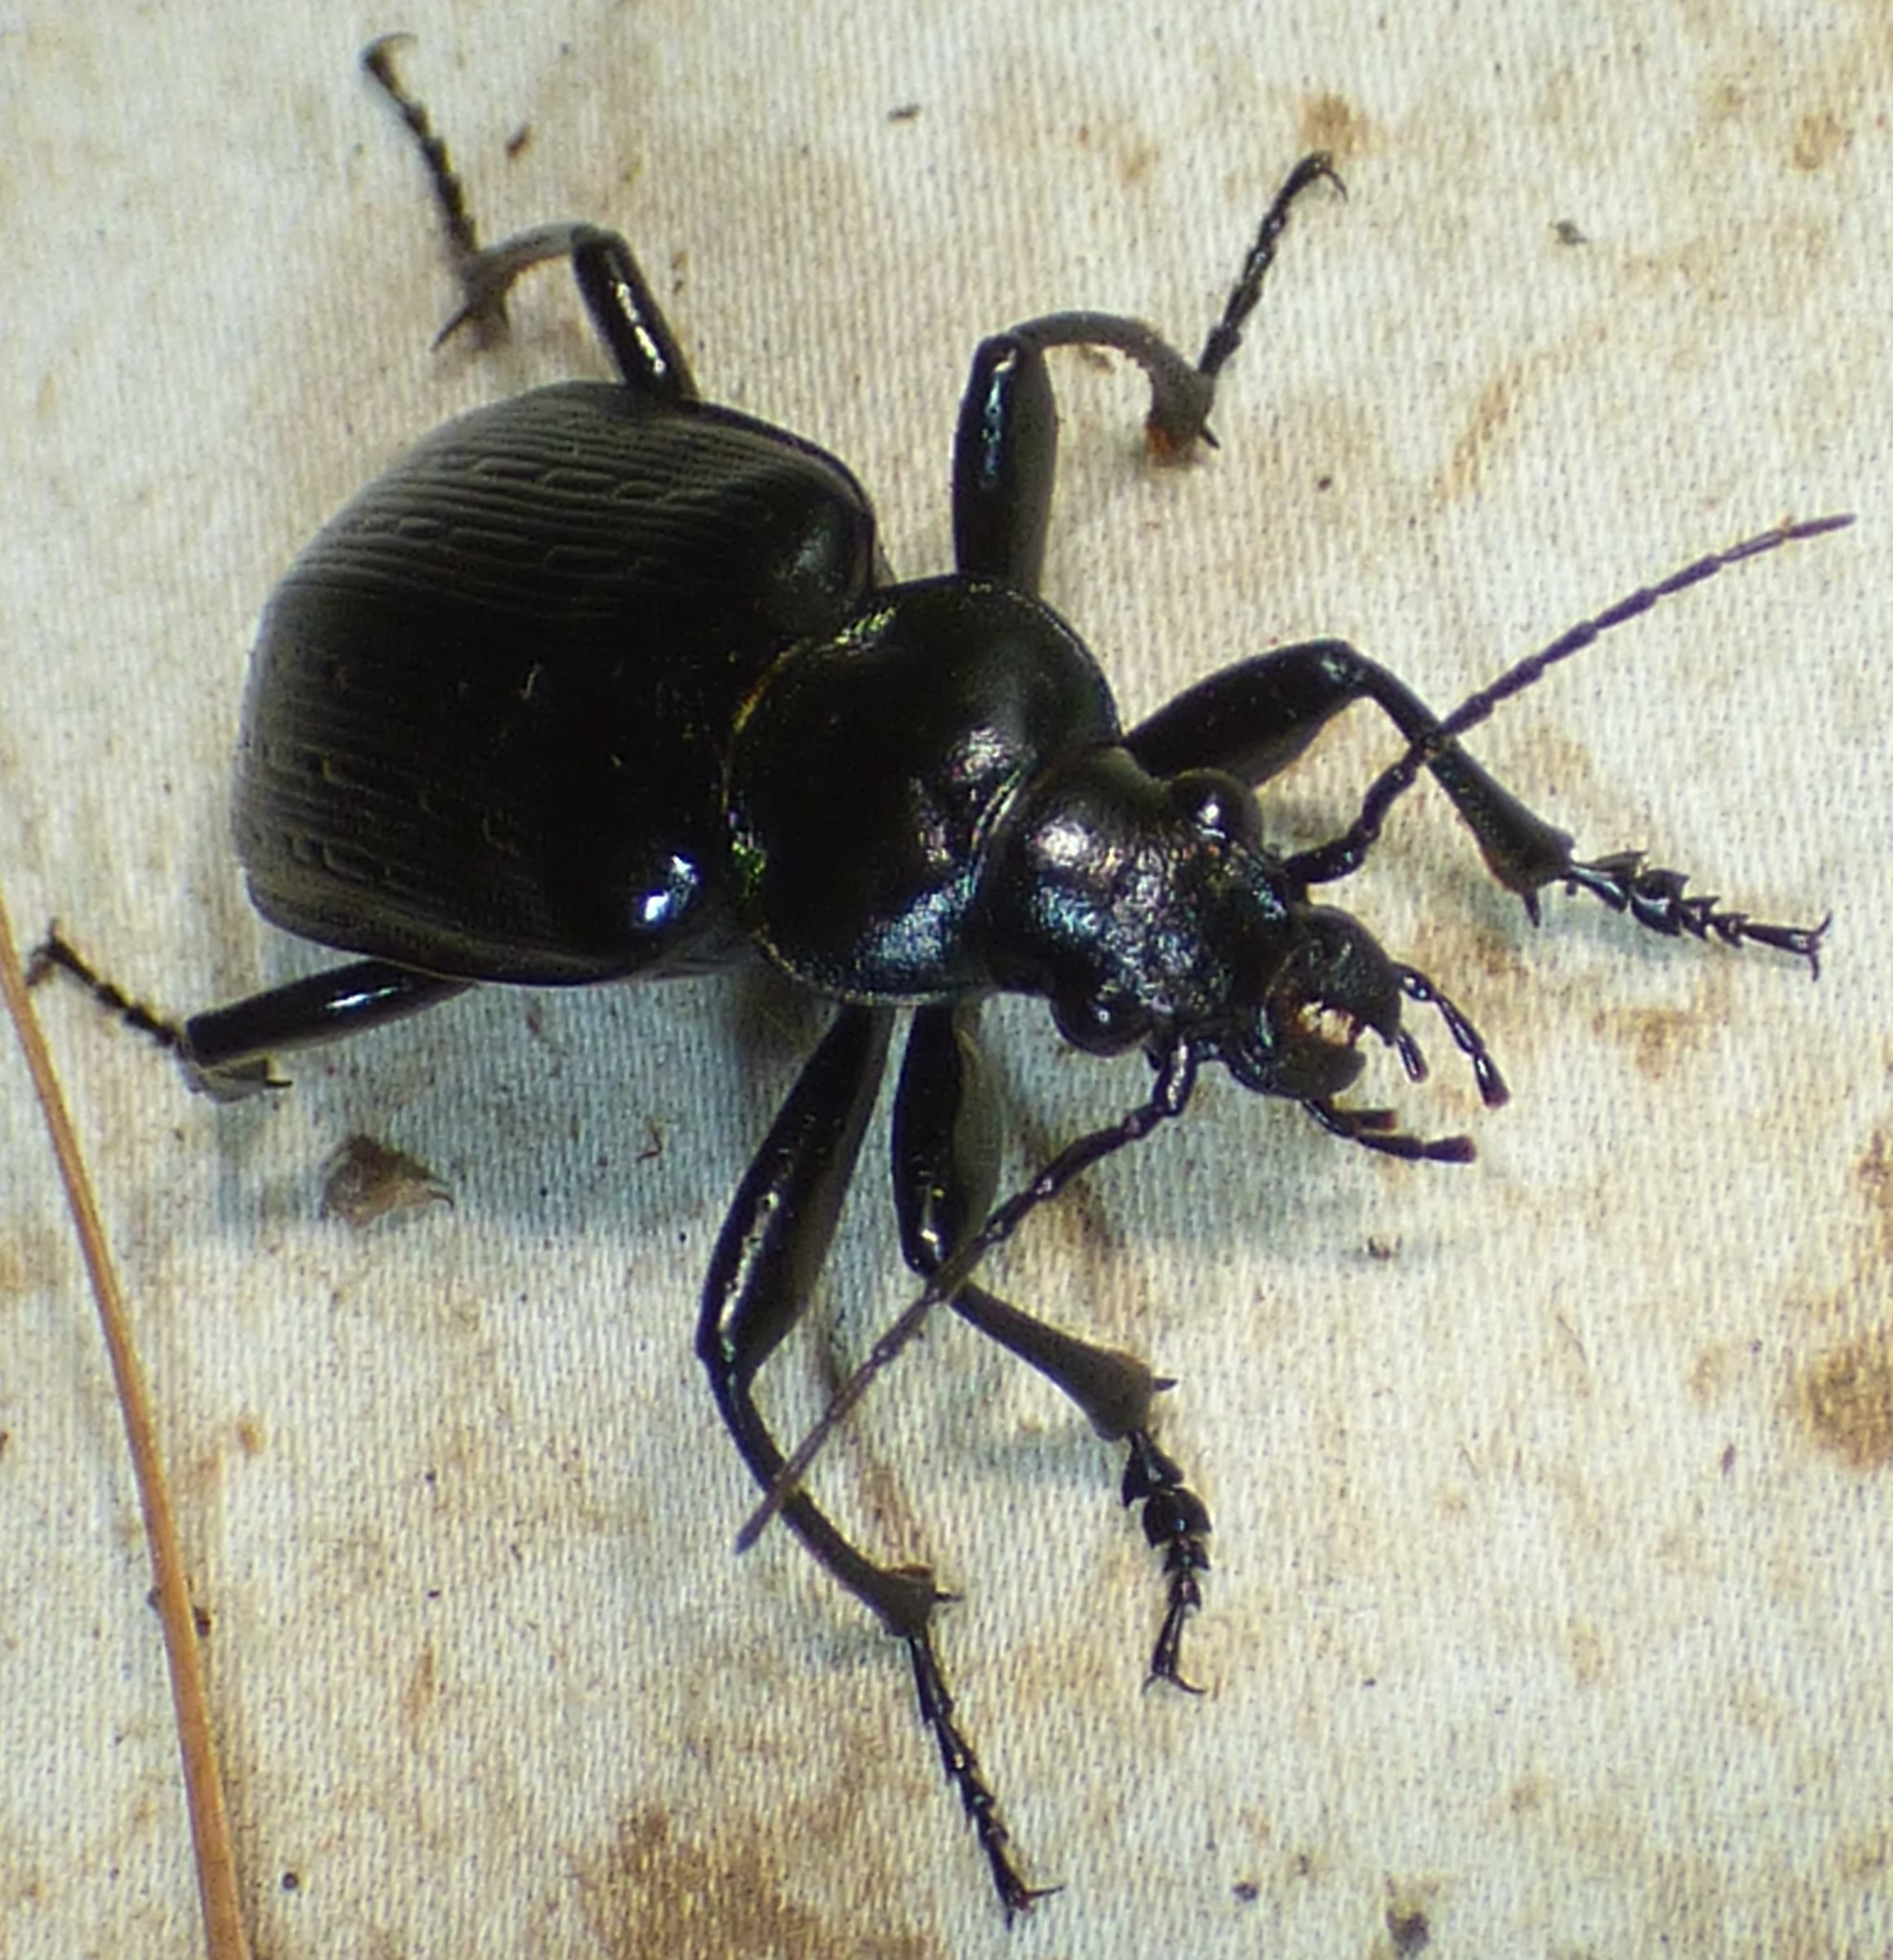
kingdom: Animalia
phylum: Arthropoda
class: Insecta
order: Coleoptera
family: Carabidae
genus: Calosoma
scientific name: Calosoma sayi
